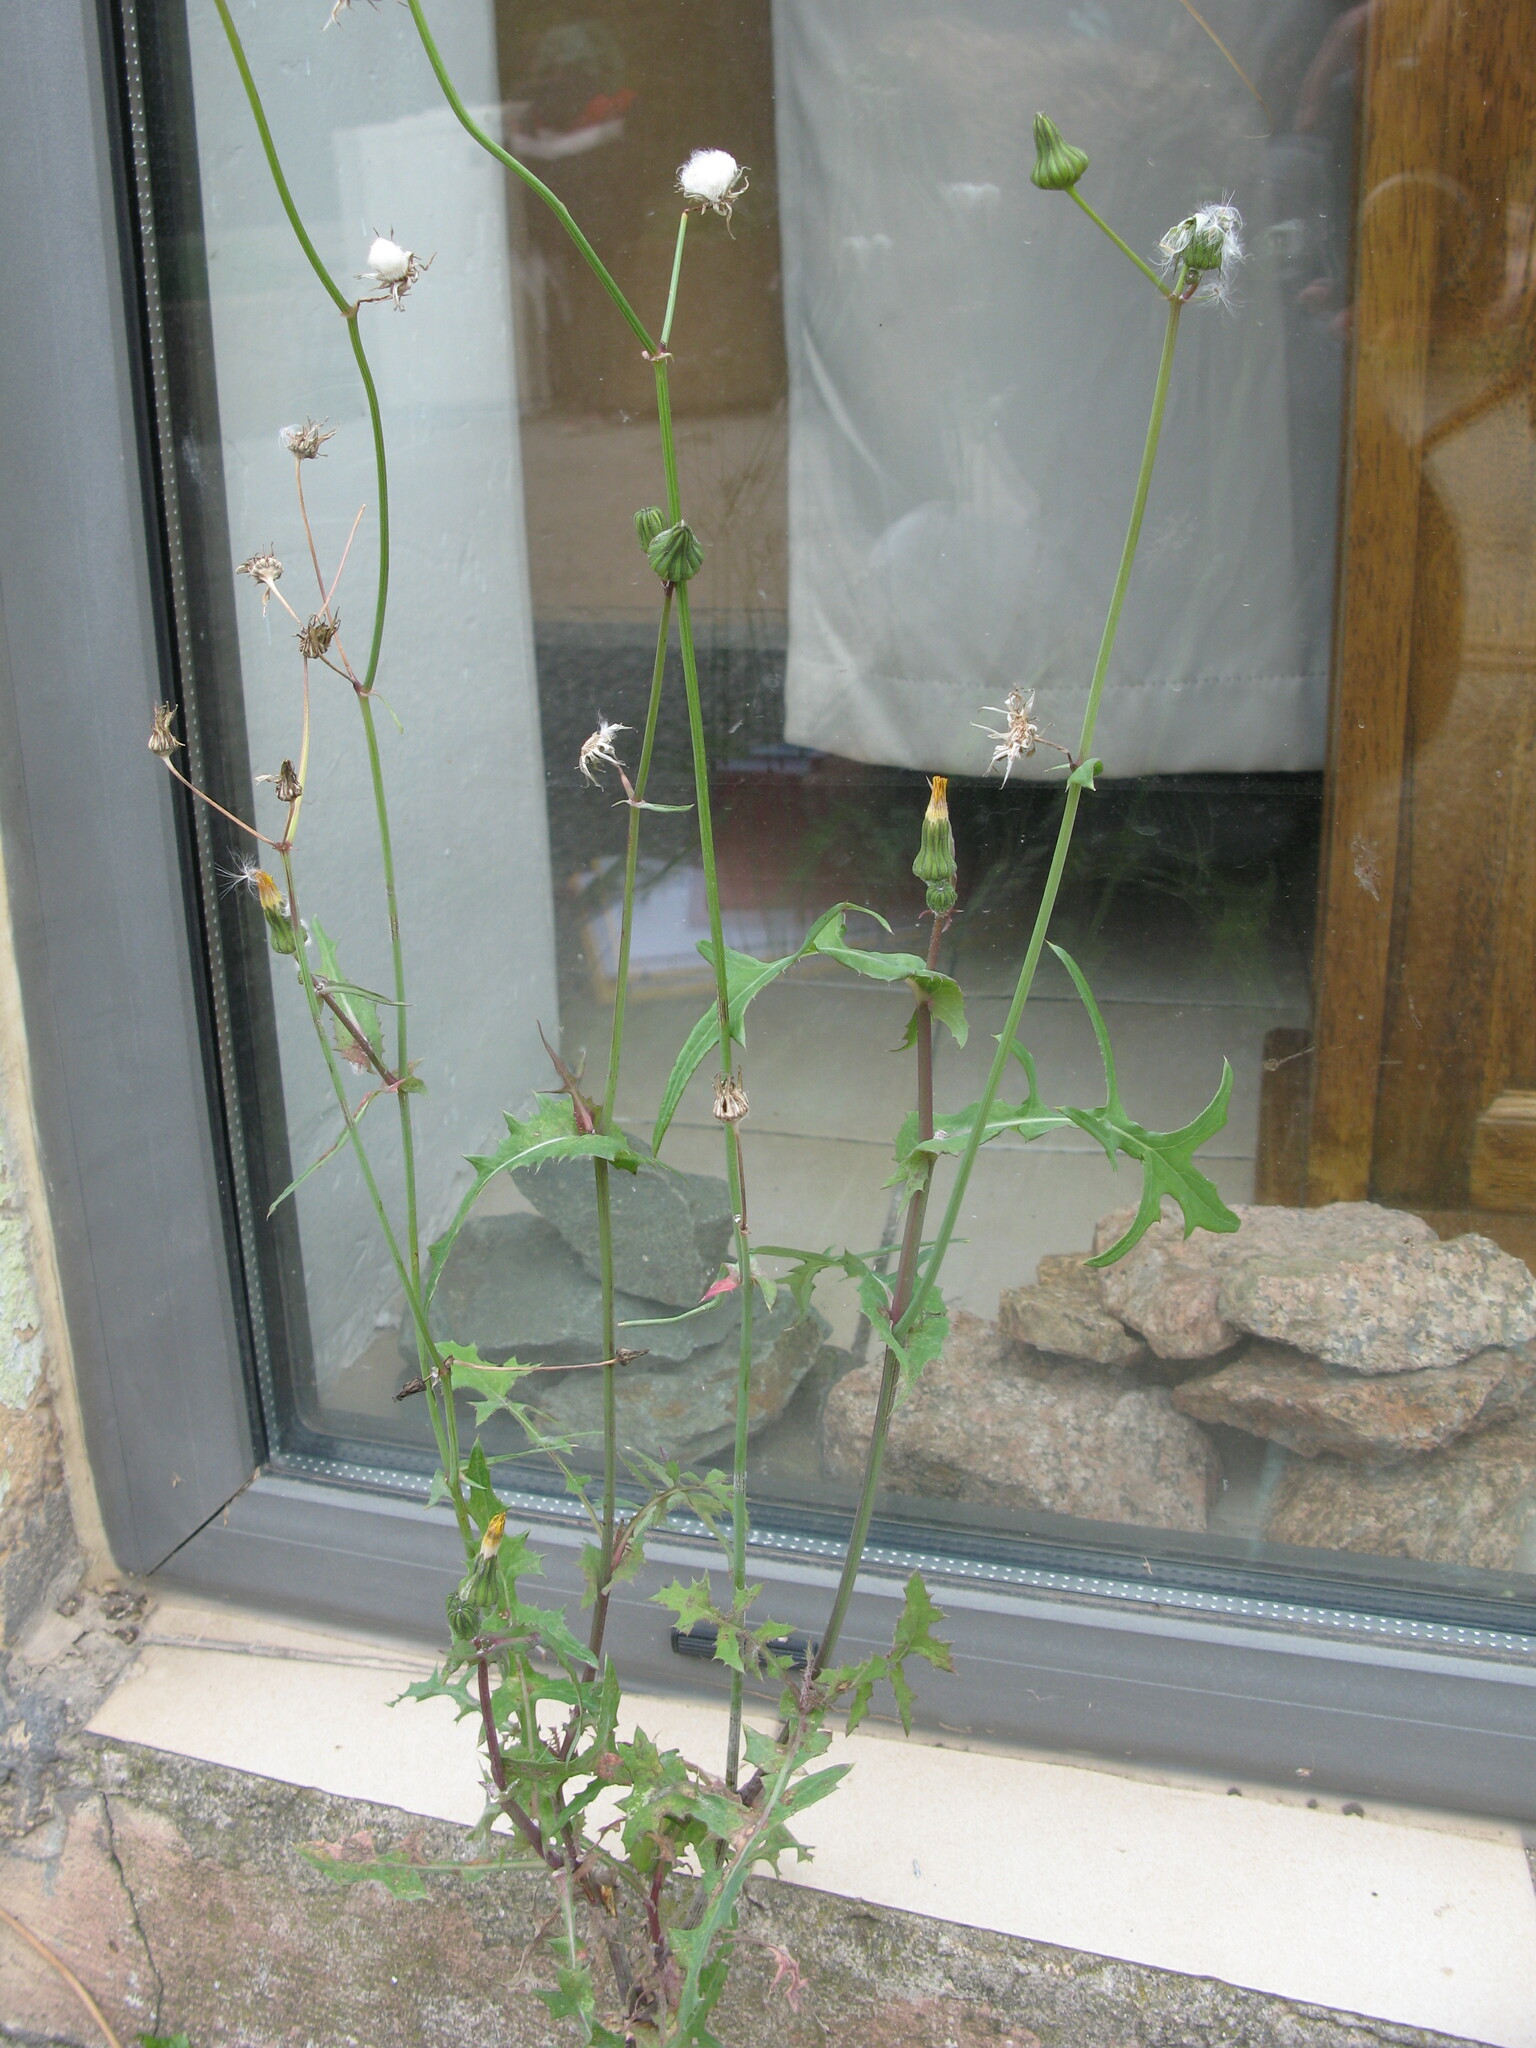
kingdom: Plantae
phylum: Tracheophyta
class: Magnoliopsida
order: Asterales
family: Asteraceae
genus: Sonchus
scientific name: Sonchus oleraceus
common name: Common sowthistle
